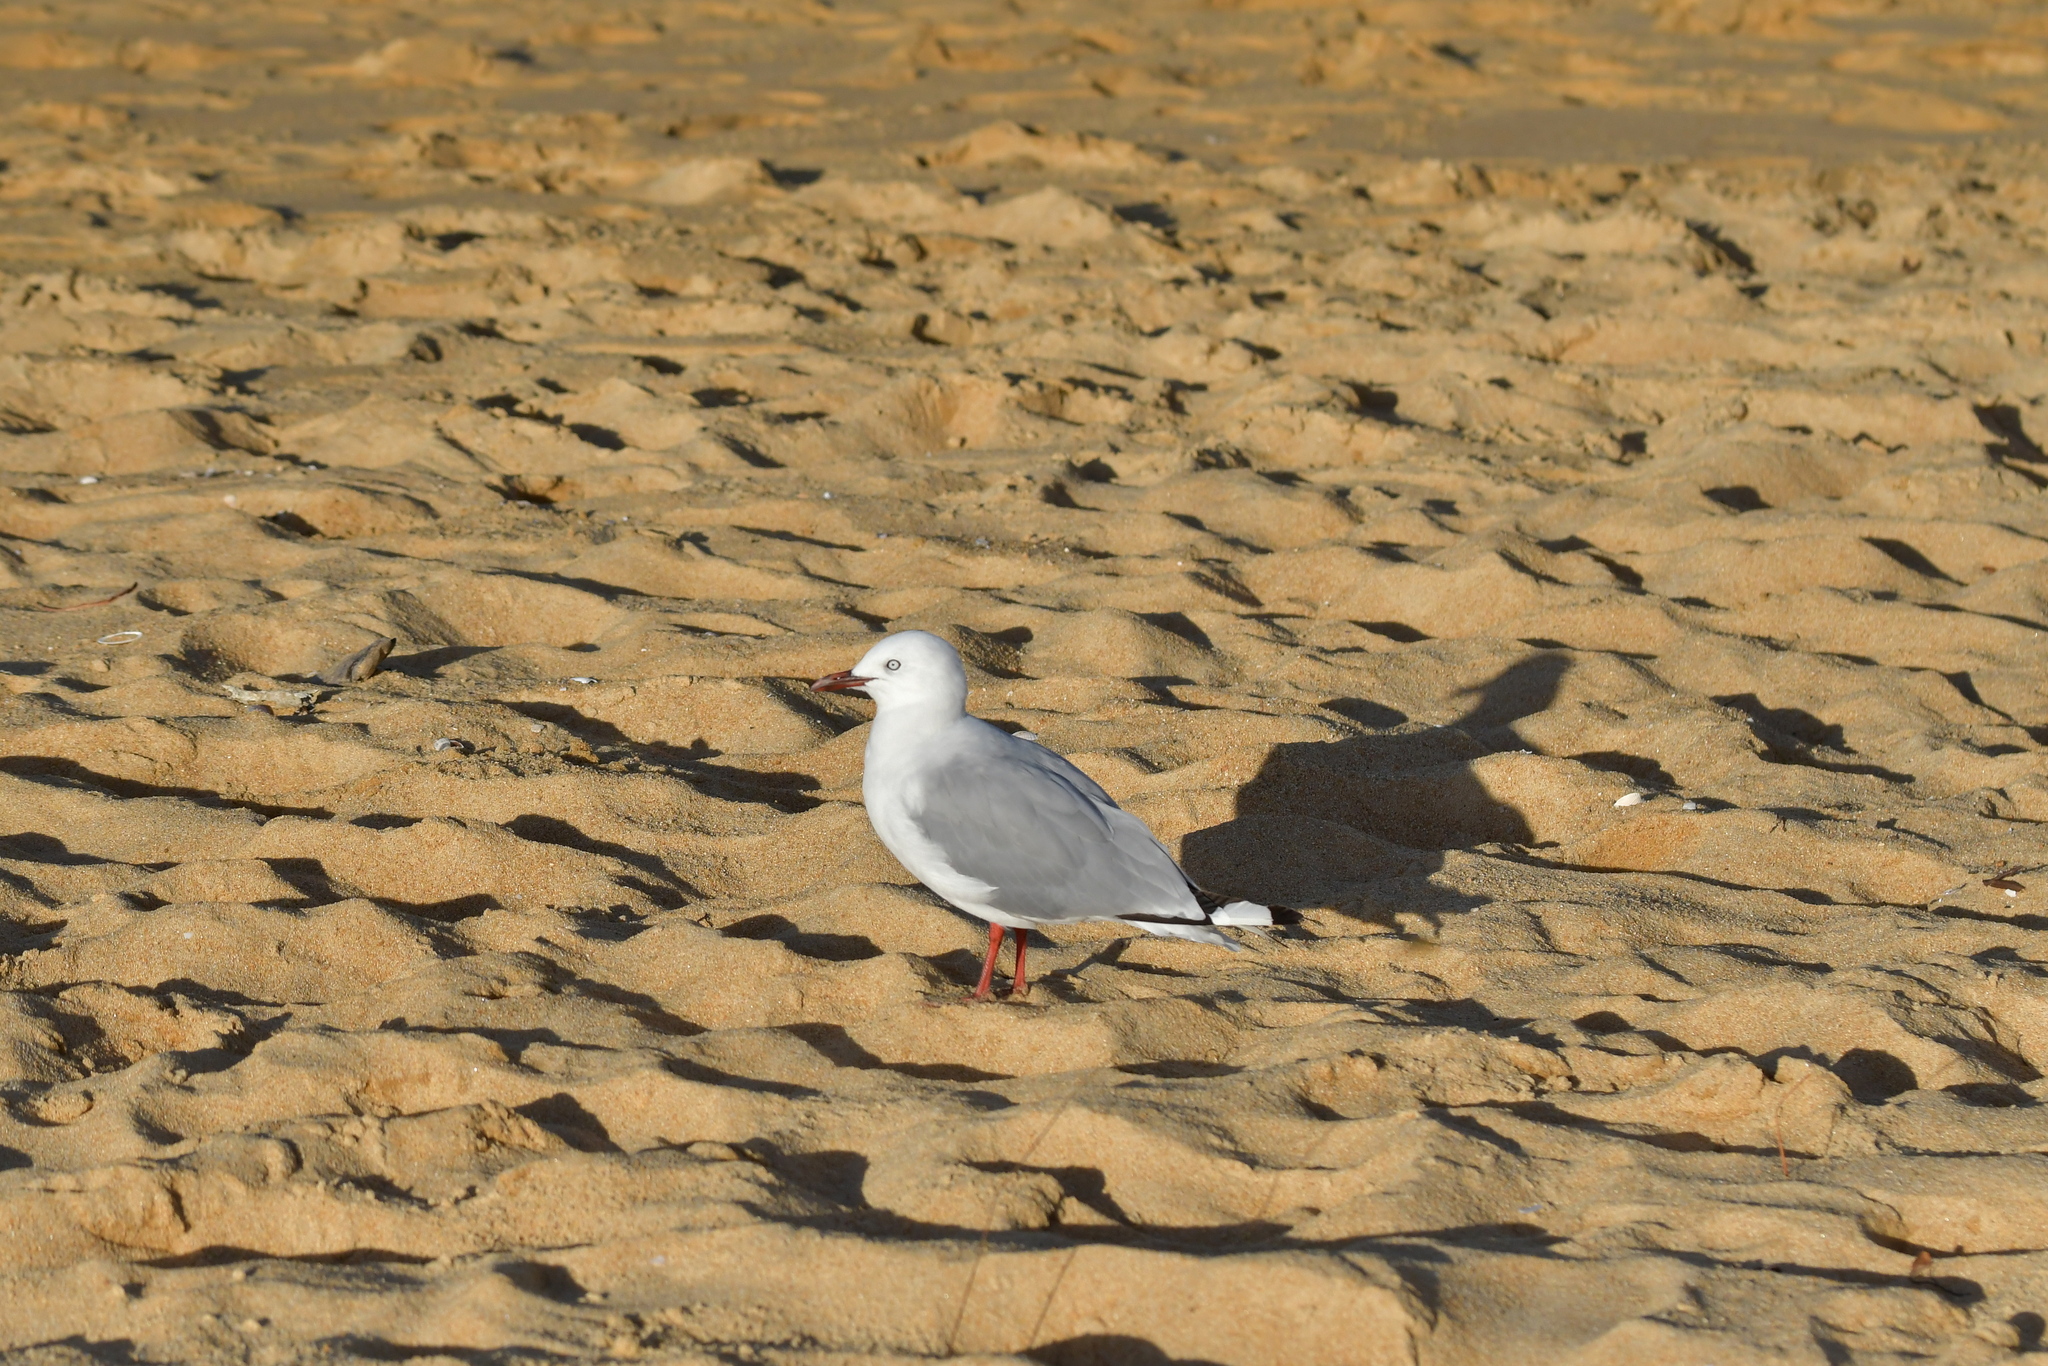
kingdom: Animalia
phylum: Chordata
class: Aves
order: Charadriiformes
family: Laridae
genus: Chroicocephalus
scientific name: Chroicocephalus novaehollandiae
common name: Silver gull
